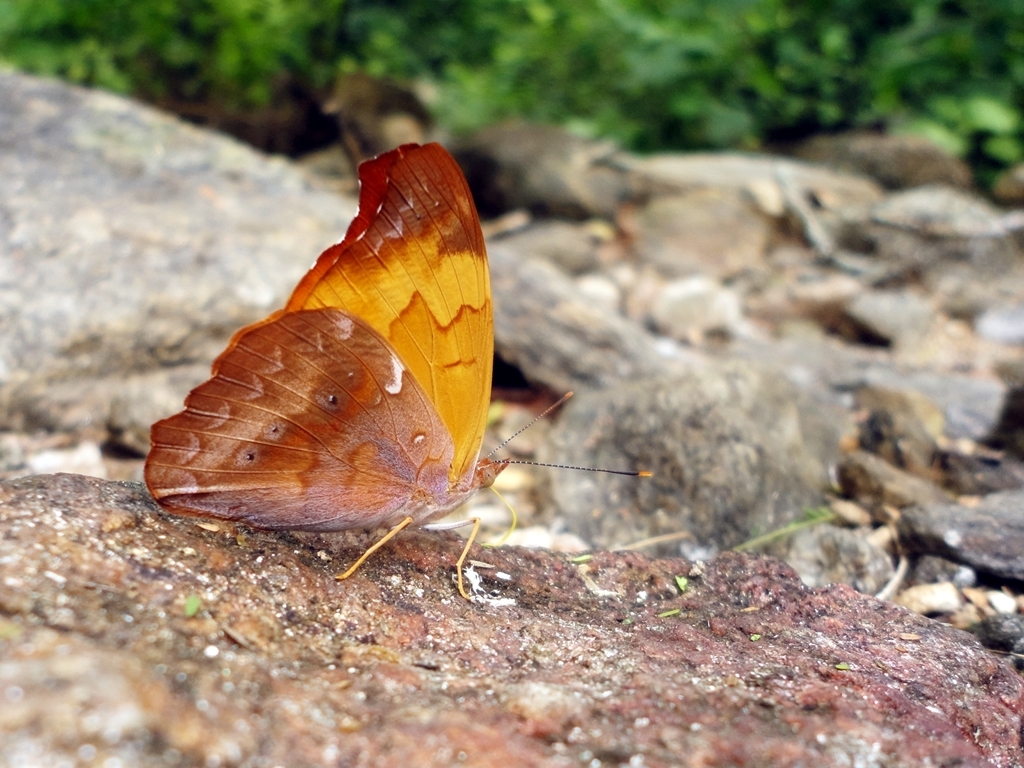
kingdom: Animalia
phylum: Arthropoda
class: Insecta
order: Lepidoptera
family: Nymphalidae
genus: Temenis
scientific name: Temenis laothoe
